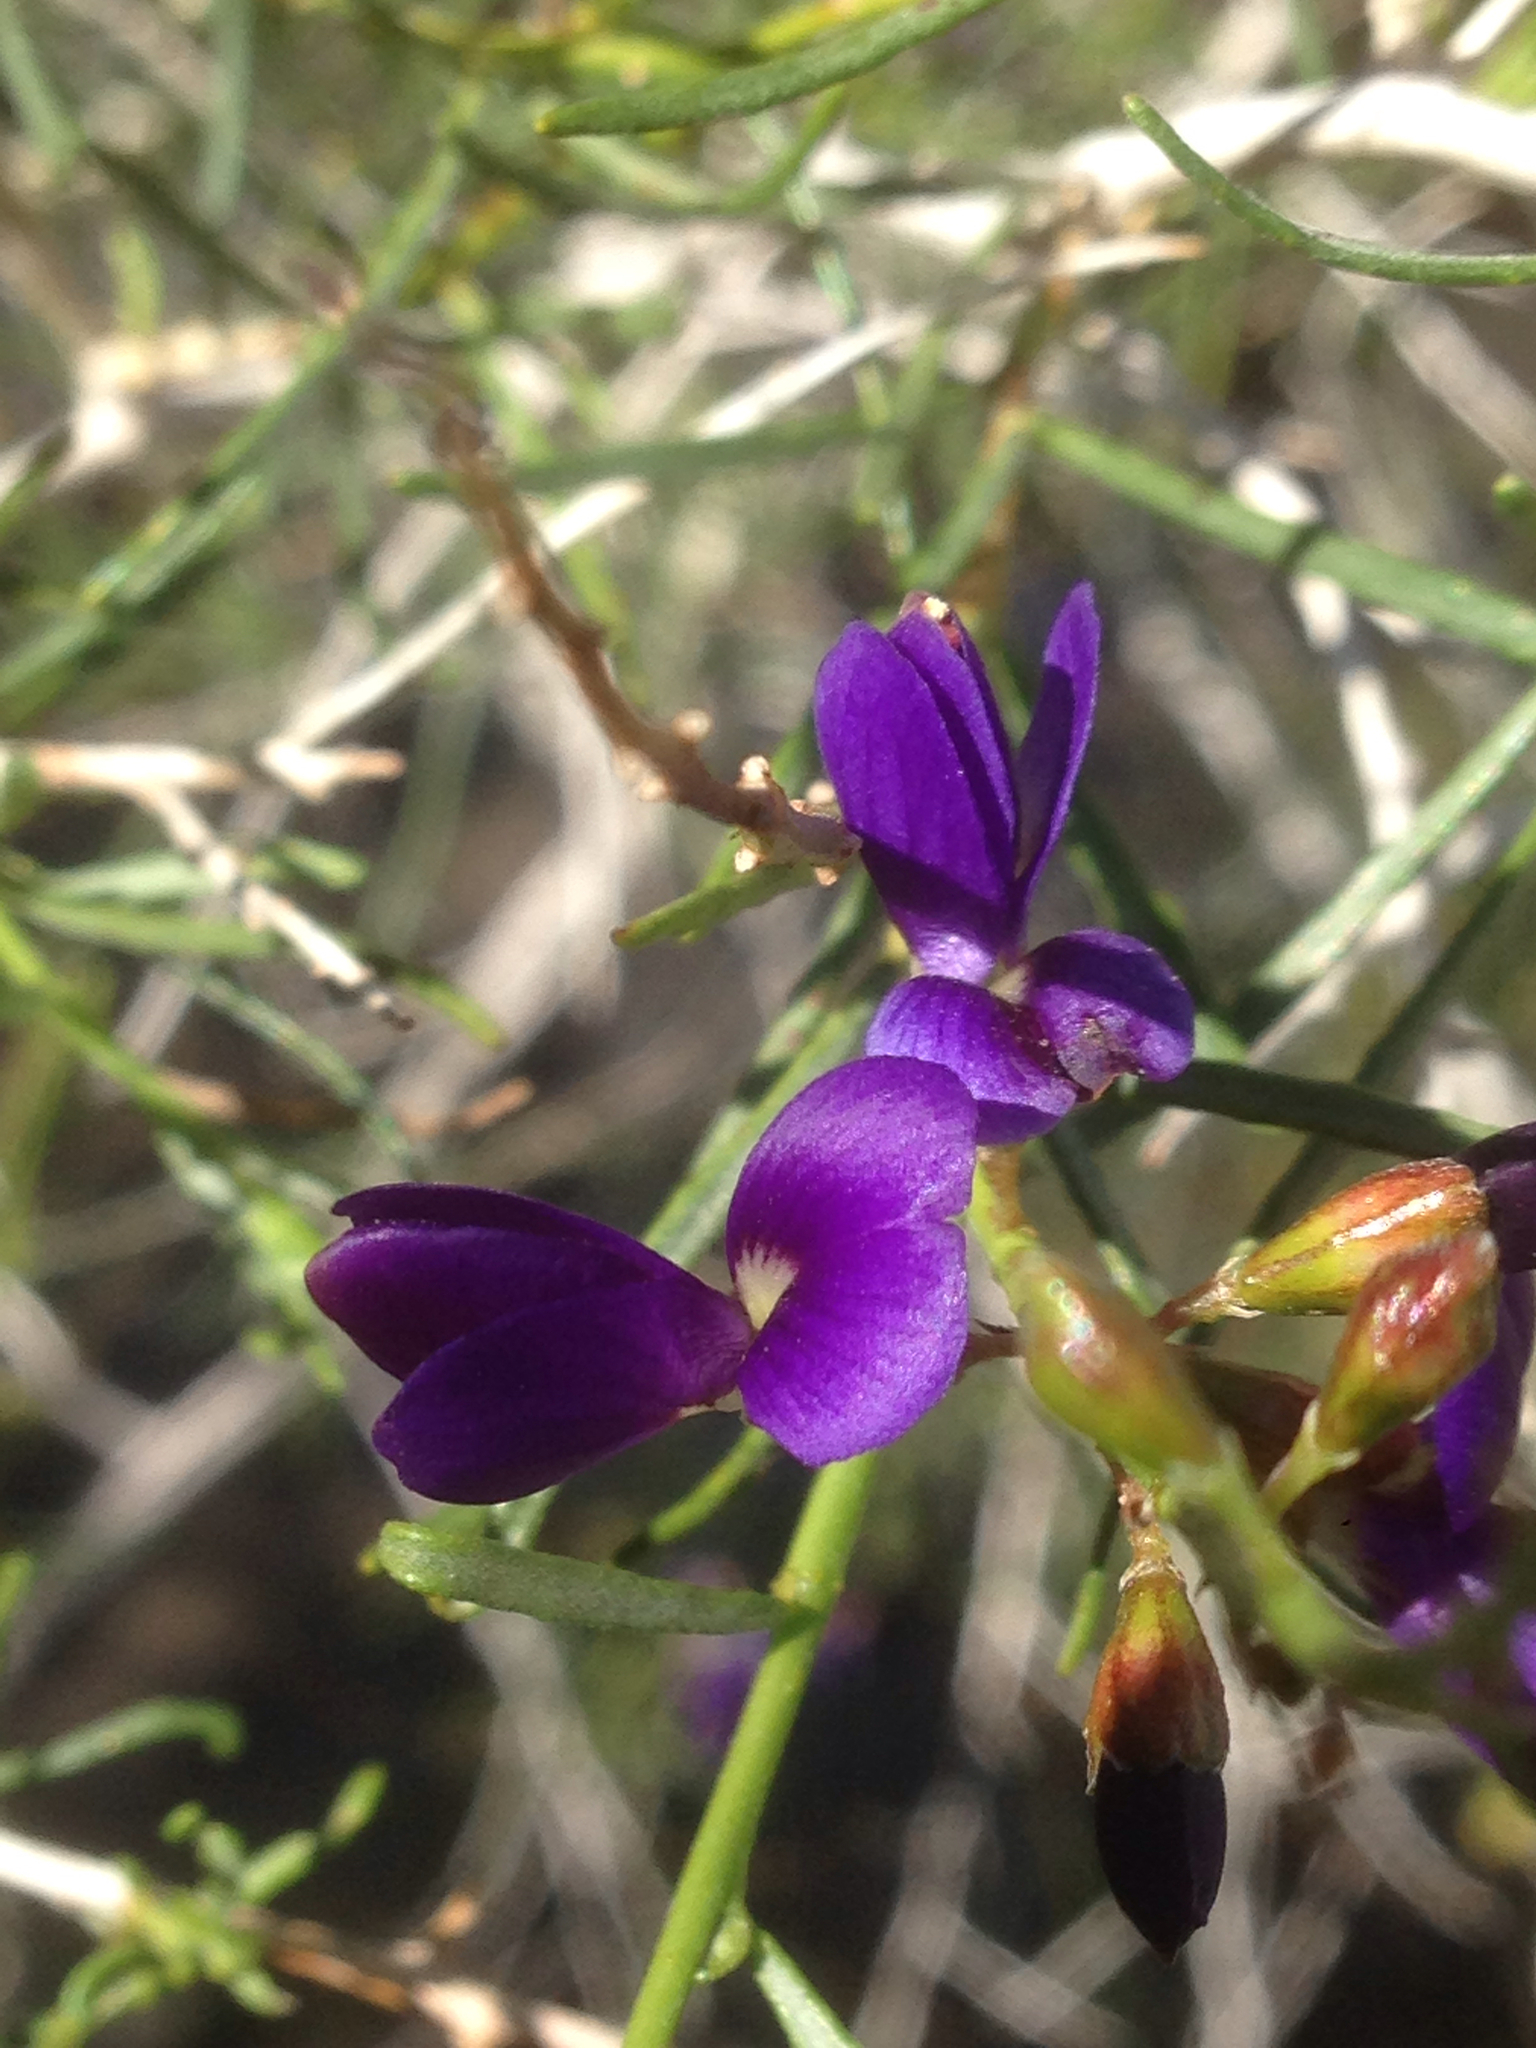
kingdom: Plantae
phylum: Tracheophyta
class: Magnoliopsida
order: Fabales
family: Fabaceae
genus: Psorothamnus
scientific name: Psorothamnus schottii
